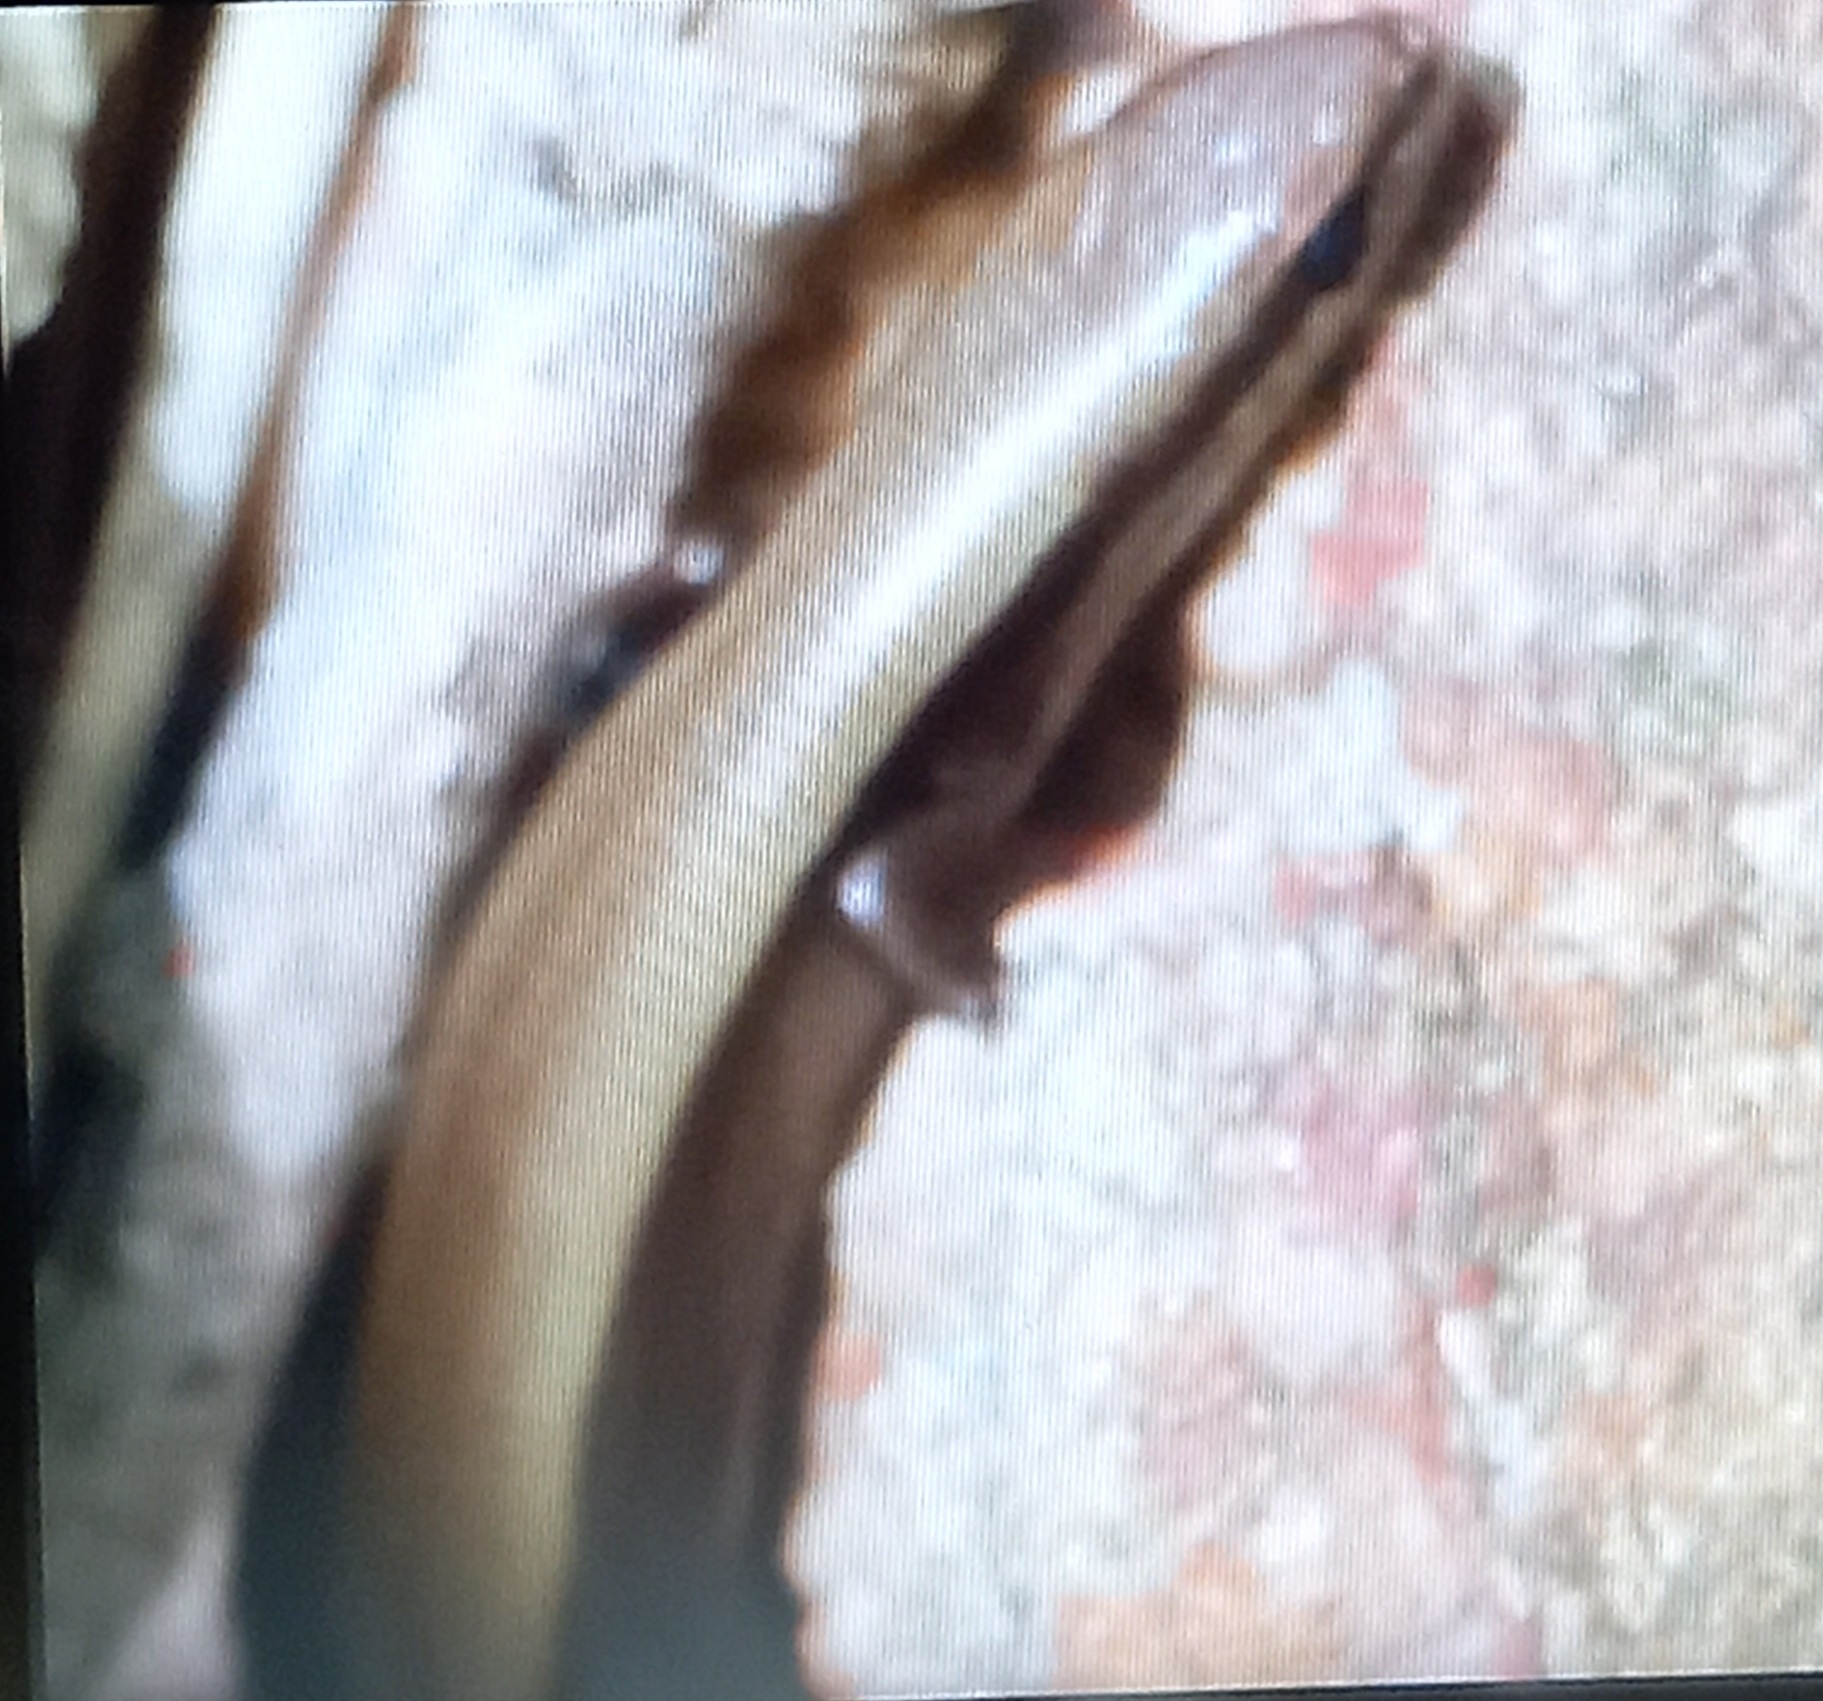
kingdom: Animalia
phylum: Chordata
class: Squamata
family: Scincidae
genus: Ablepharus
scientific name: Ablepharus kitaibelii
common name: Juniper skink
